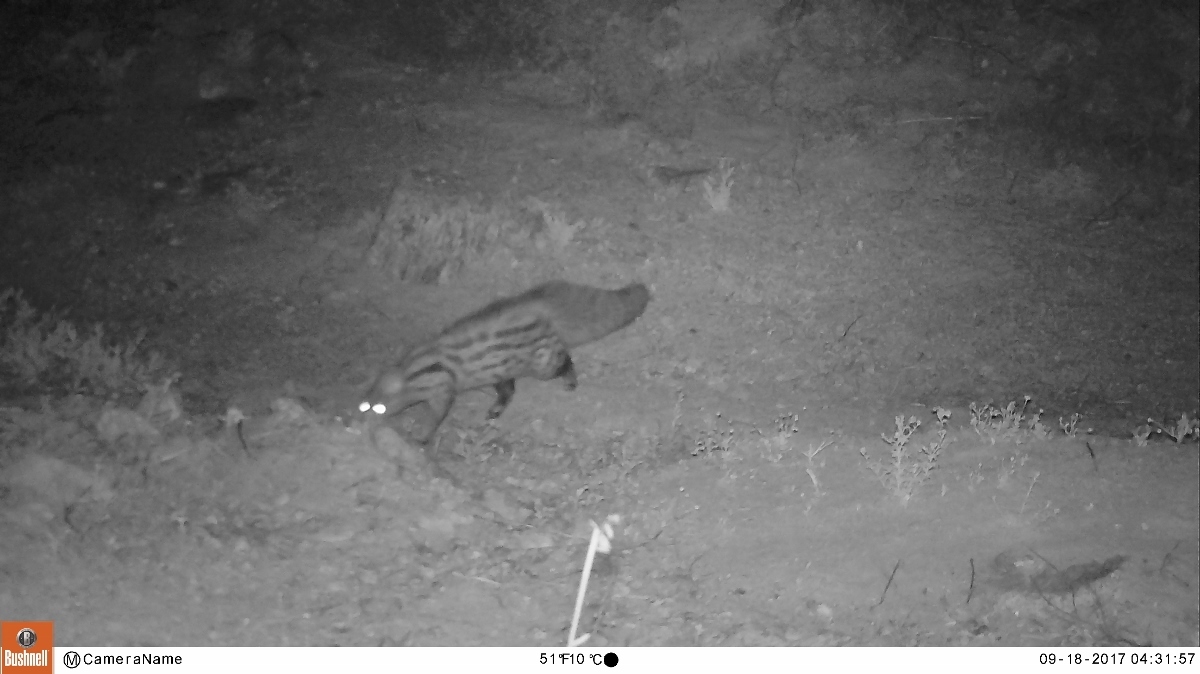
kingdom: Animalia
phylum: Chordata
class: Mammalia
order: Carnivora
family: Viverridae
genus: Genetta
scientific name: Genetta genetta
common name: Common genet
